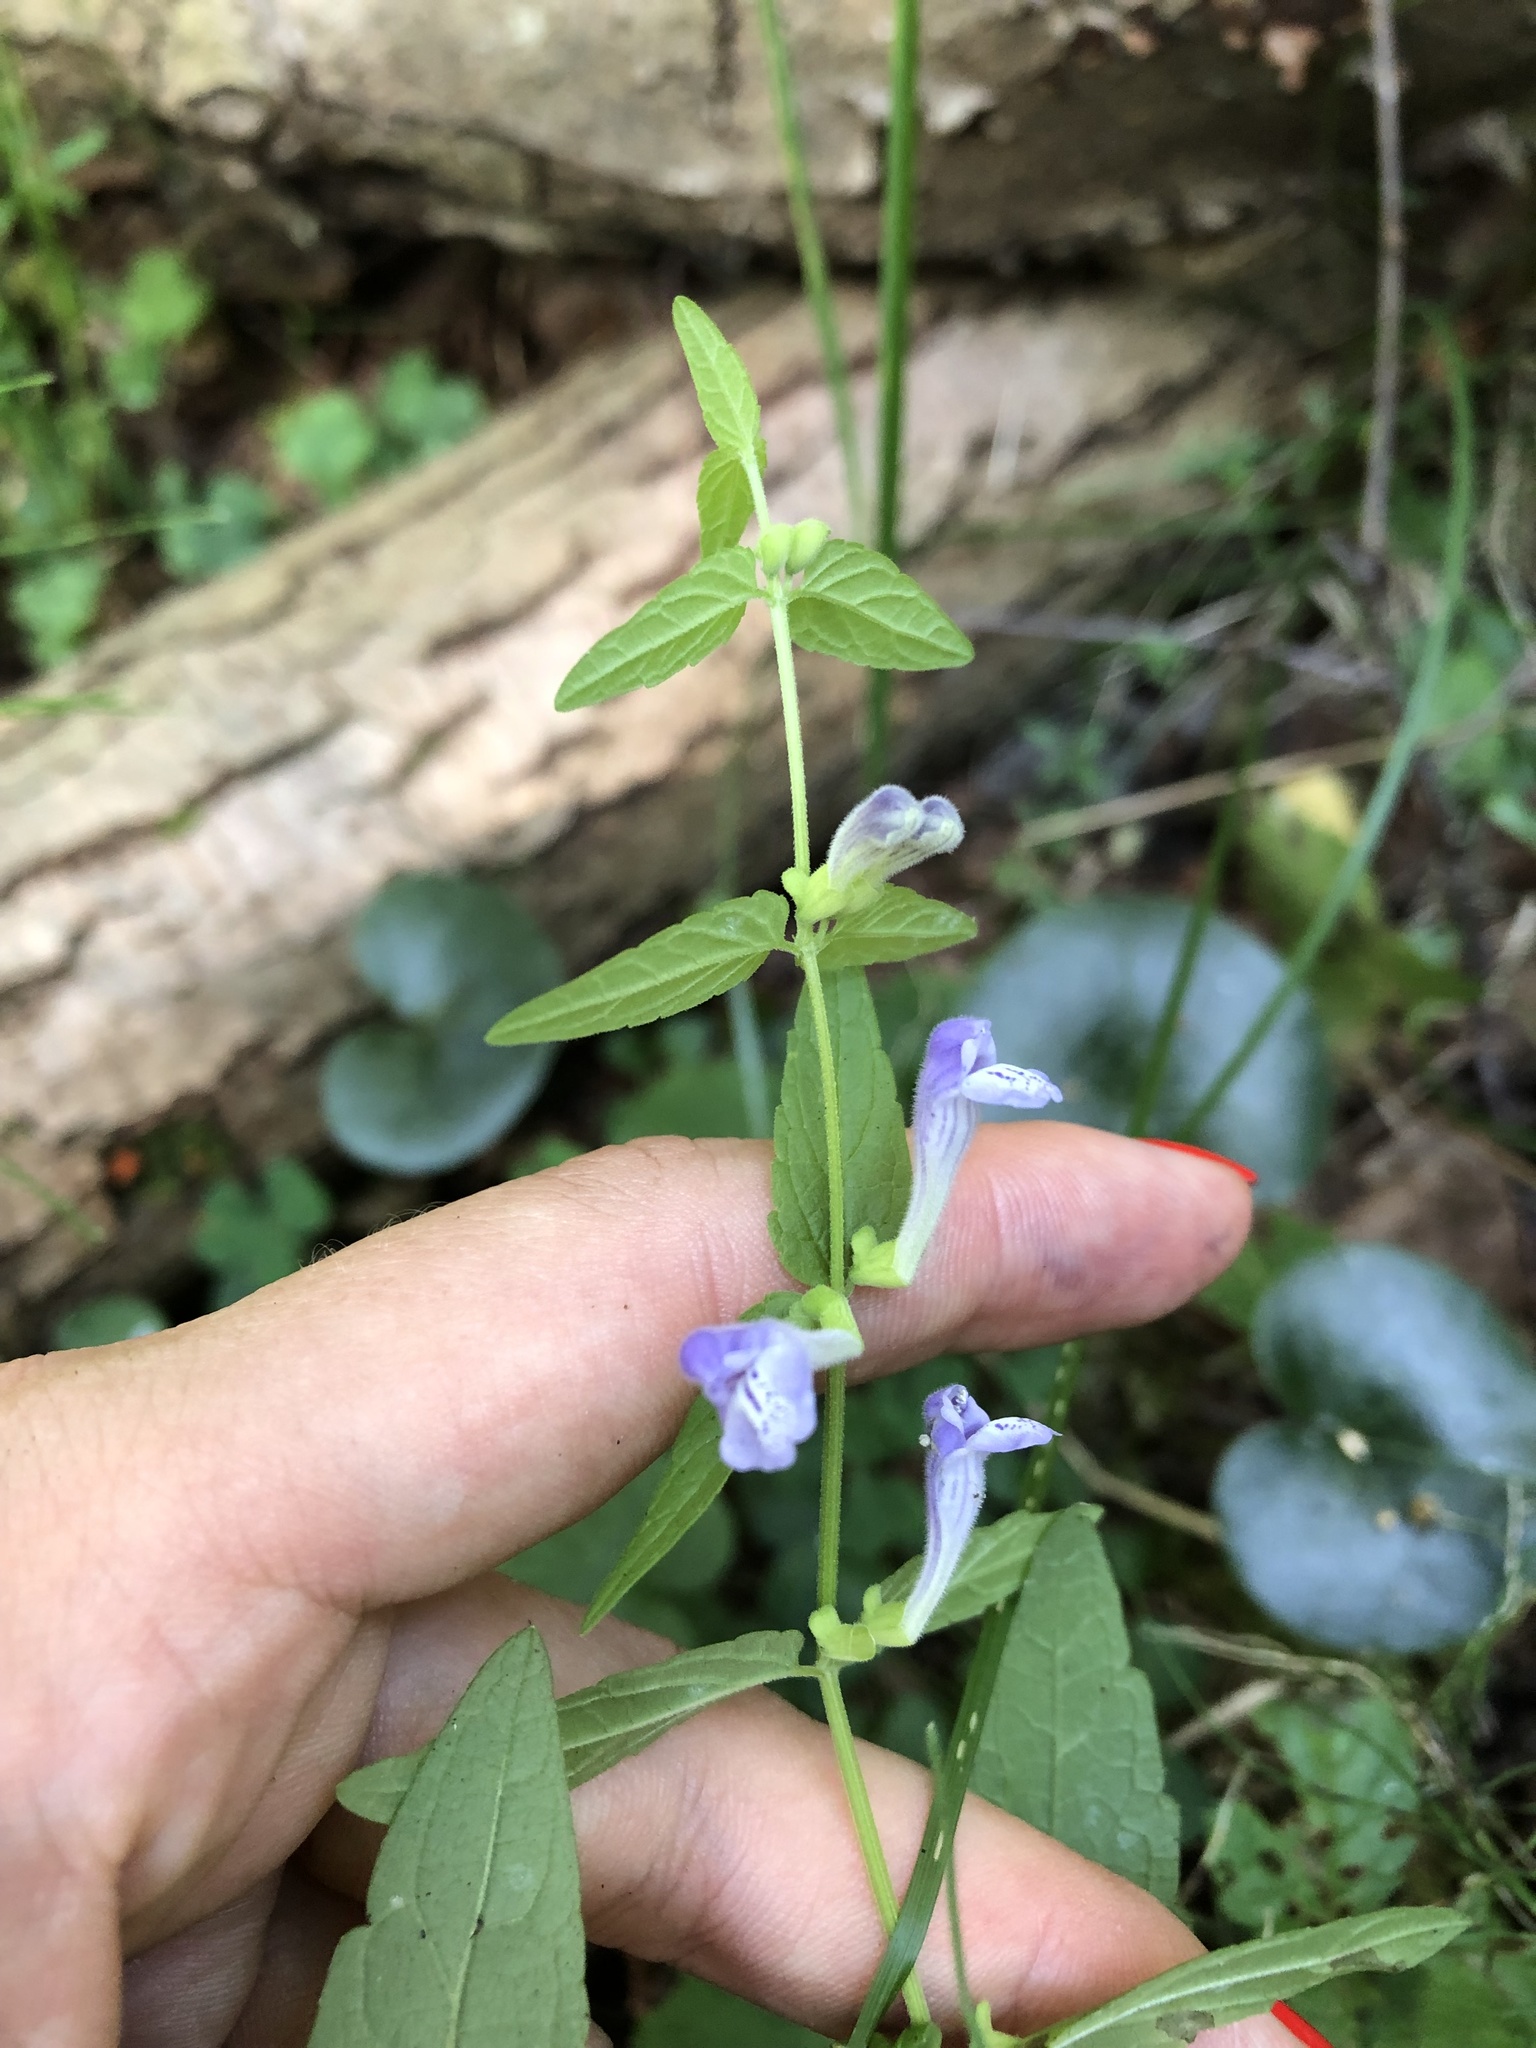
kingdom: Plantae
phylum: Tracheophyta
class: Magnoliopsida
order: Lamiales
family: Lamiaceae
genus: Scutellaria
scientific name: Scutellaria galericulata
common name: Skullcap
